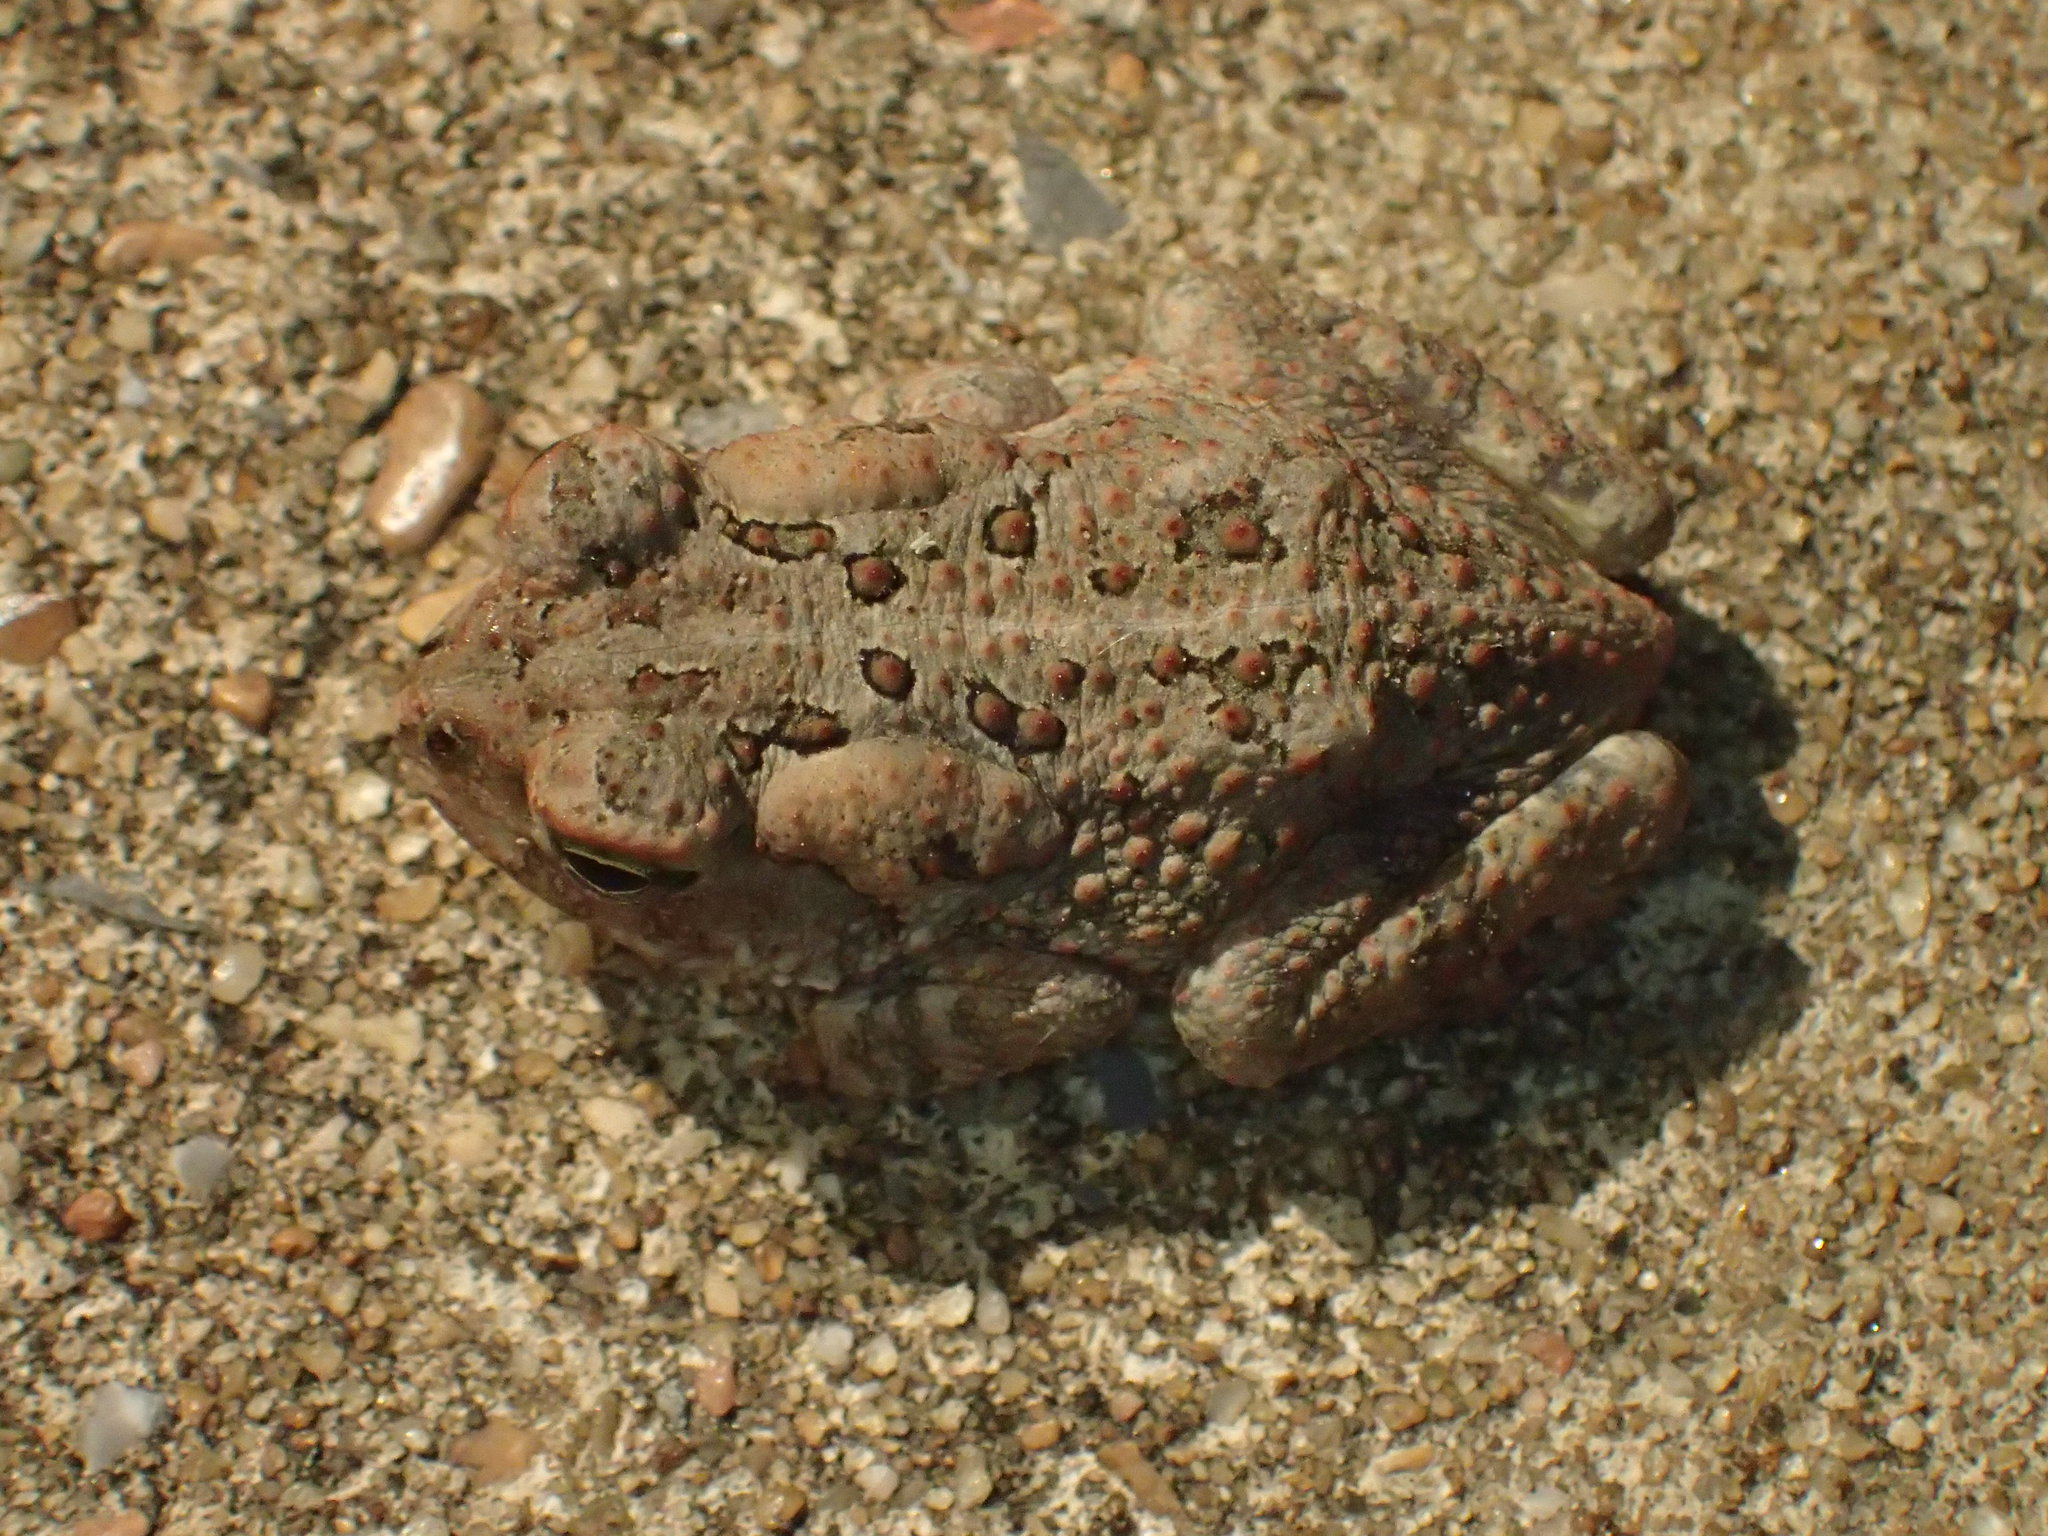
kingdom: Animalia
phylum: Chordata
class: Amphibia
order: Anura
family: Bufonidae
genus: Anaxyrus
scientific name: Anaxyrus fowleri
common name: Fowler's toad
